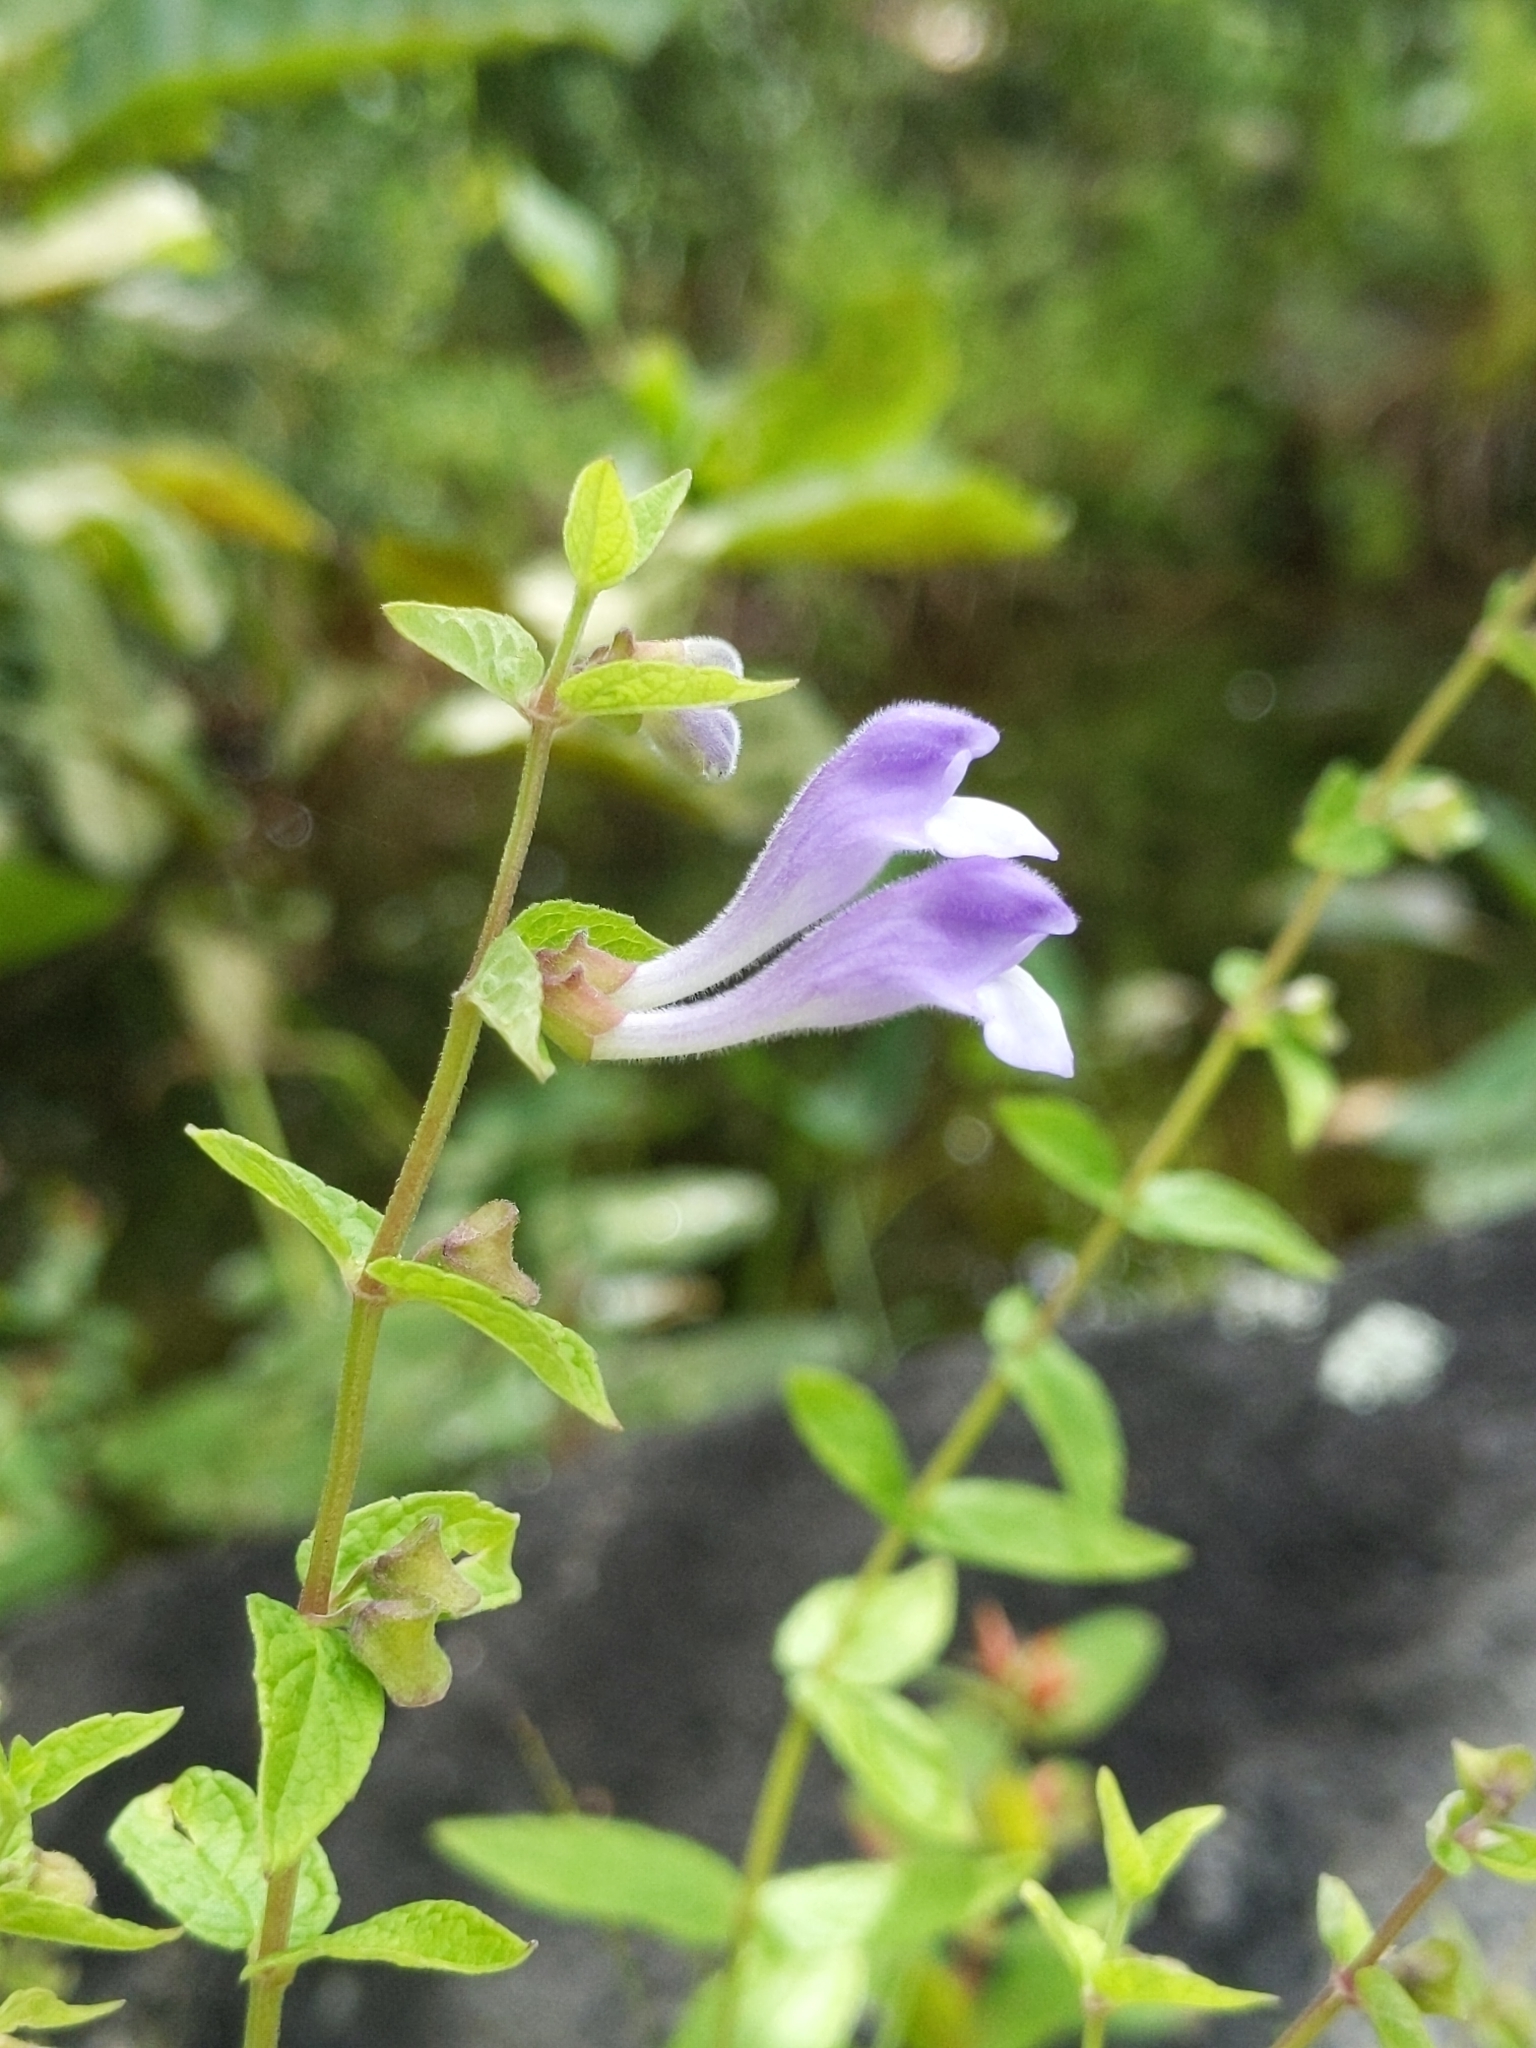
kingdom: Plantae
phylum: Tracheophyta
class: Magnoliopsida
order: Lamiales
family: Lamiaceae
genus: Scutellaria
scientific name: Scutellaria galericulata
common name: Skullcap
